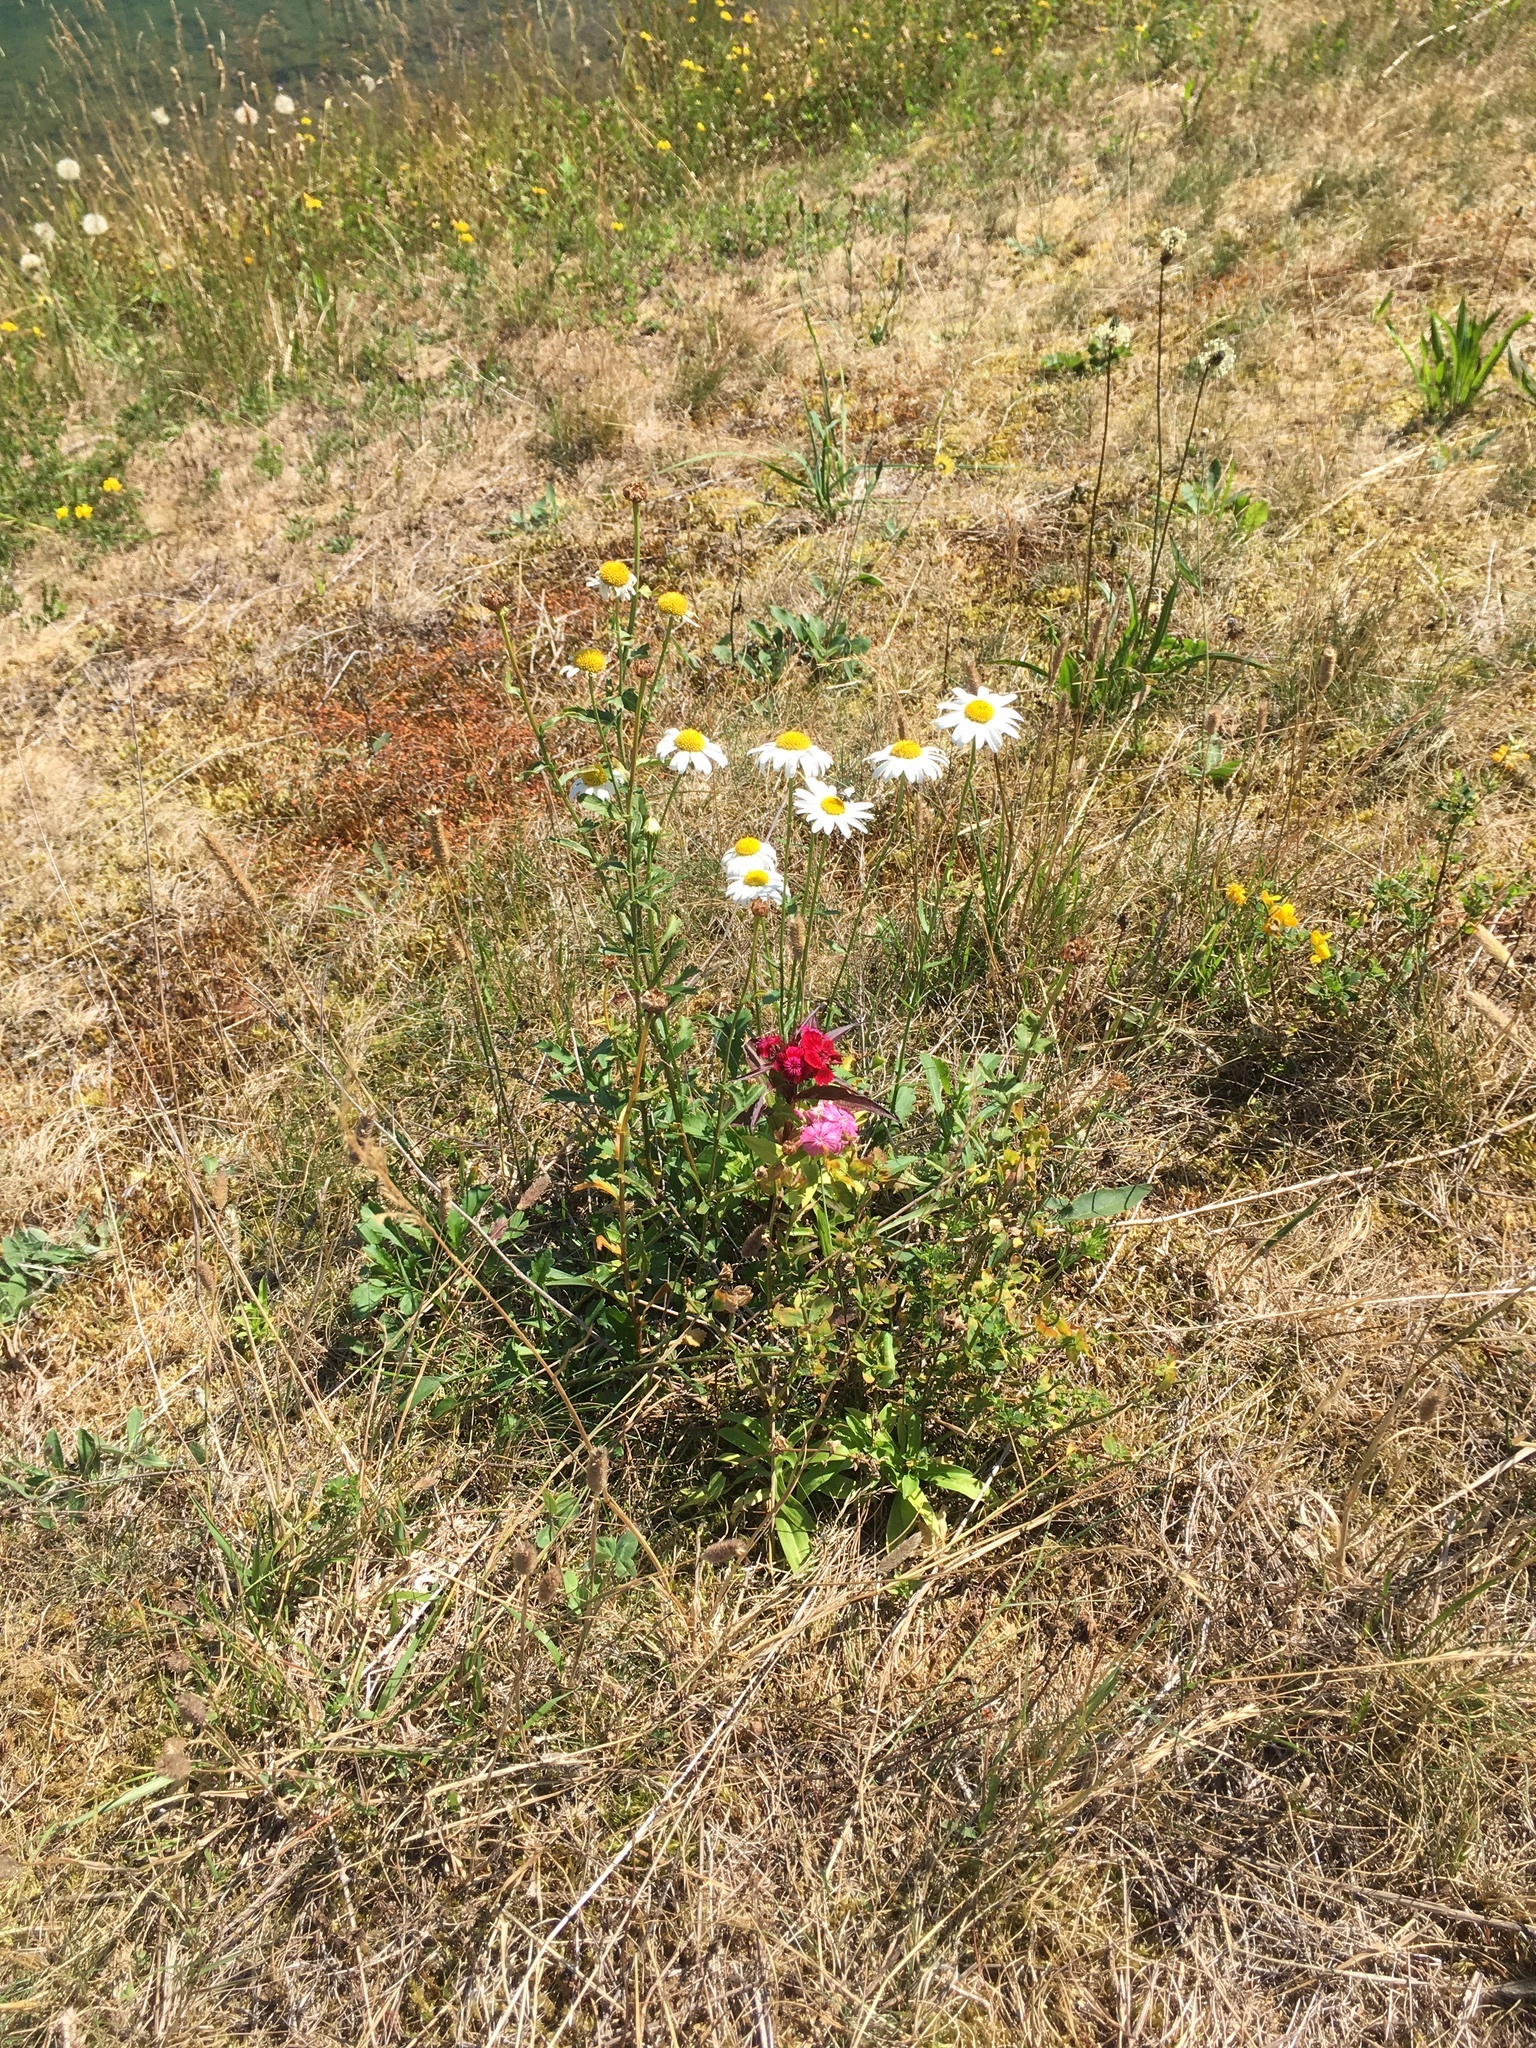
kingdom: Plantae
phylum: Tracheophyta
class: Magnoliopsida
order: Asterales
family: Asteraceae
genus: Leucanthemum
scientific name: Leucanthemum vulgare
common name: Oxeye daisy
